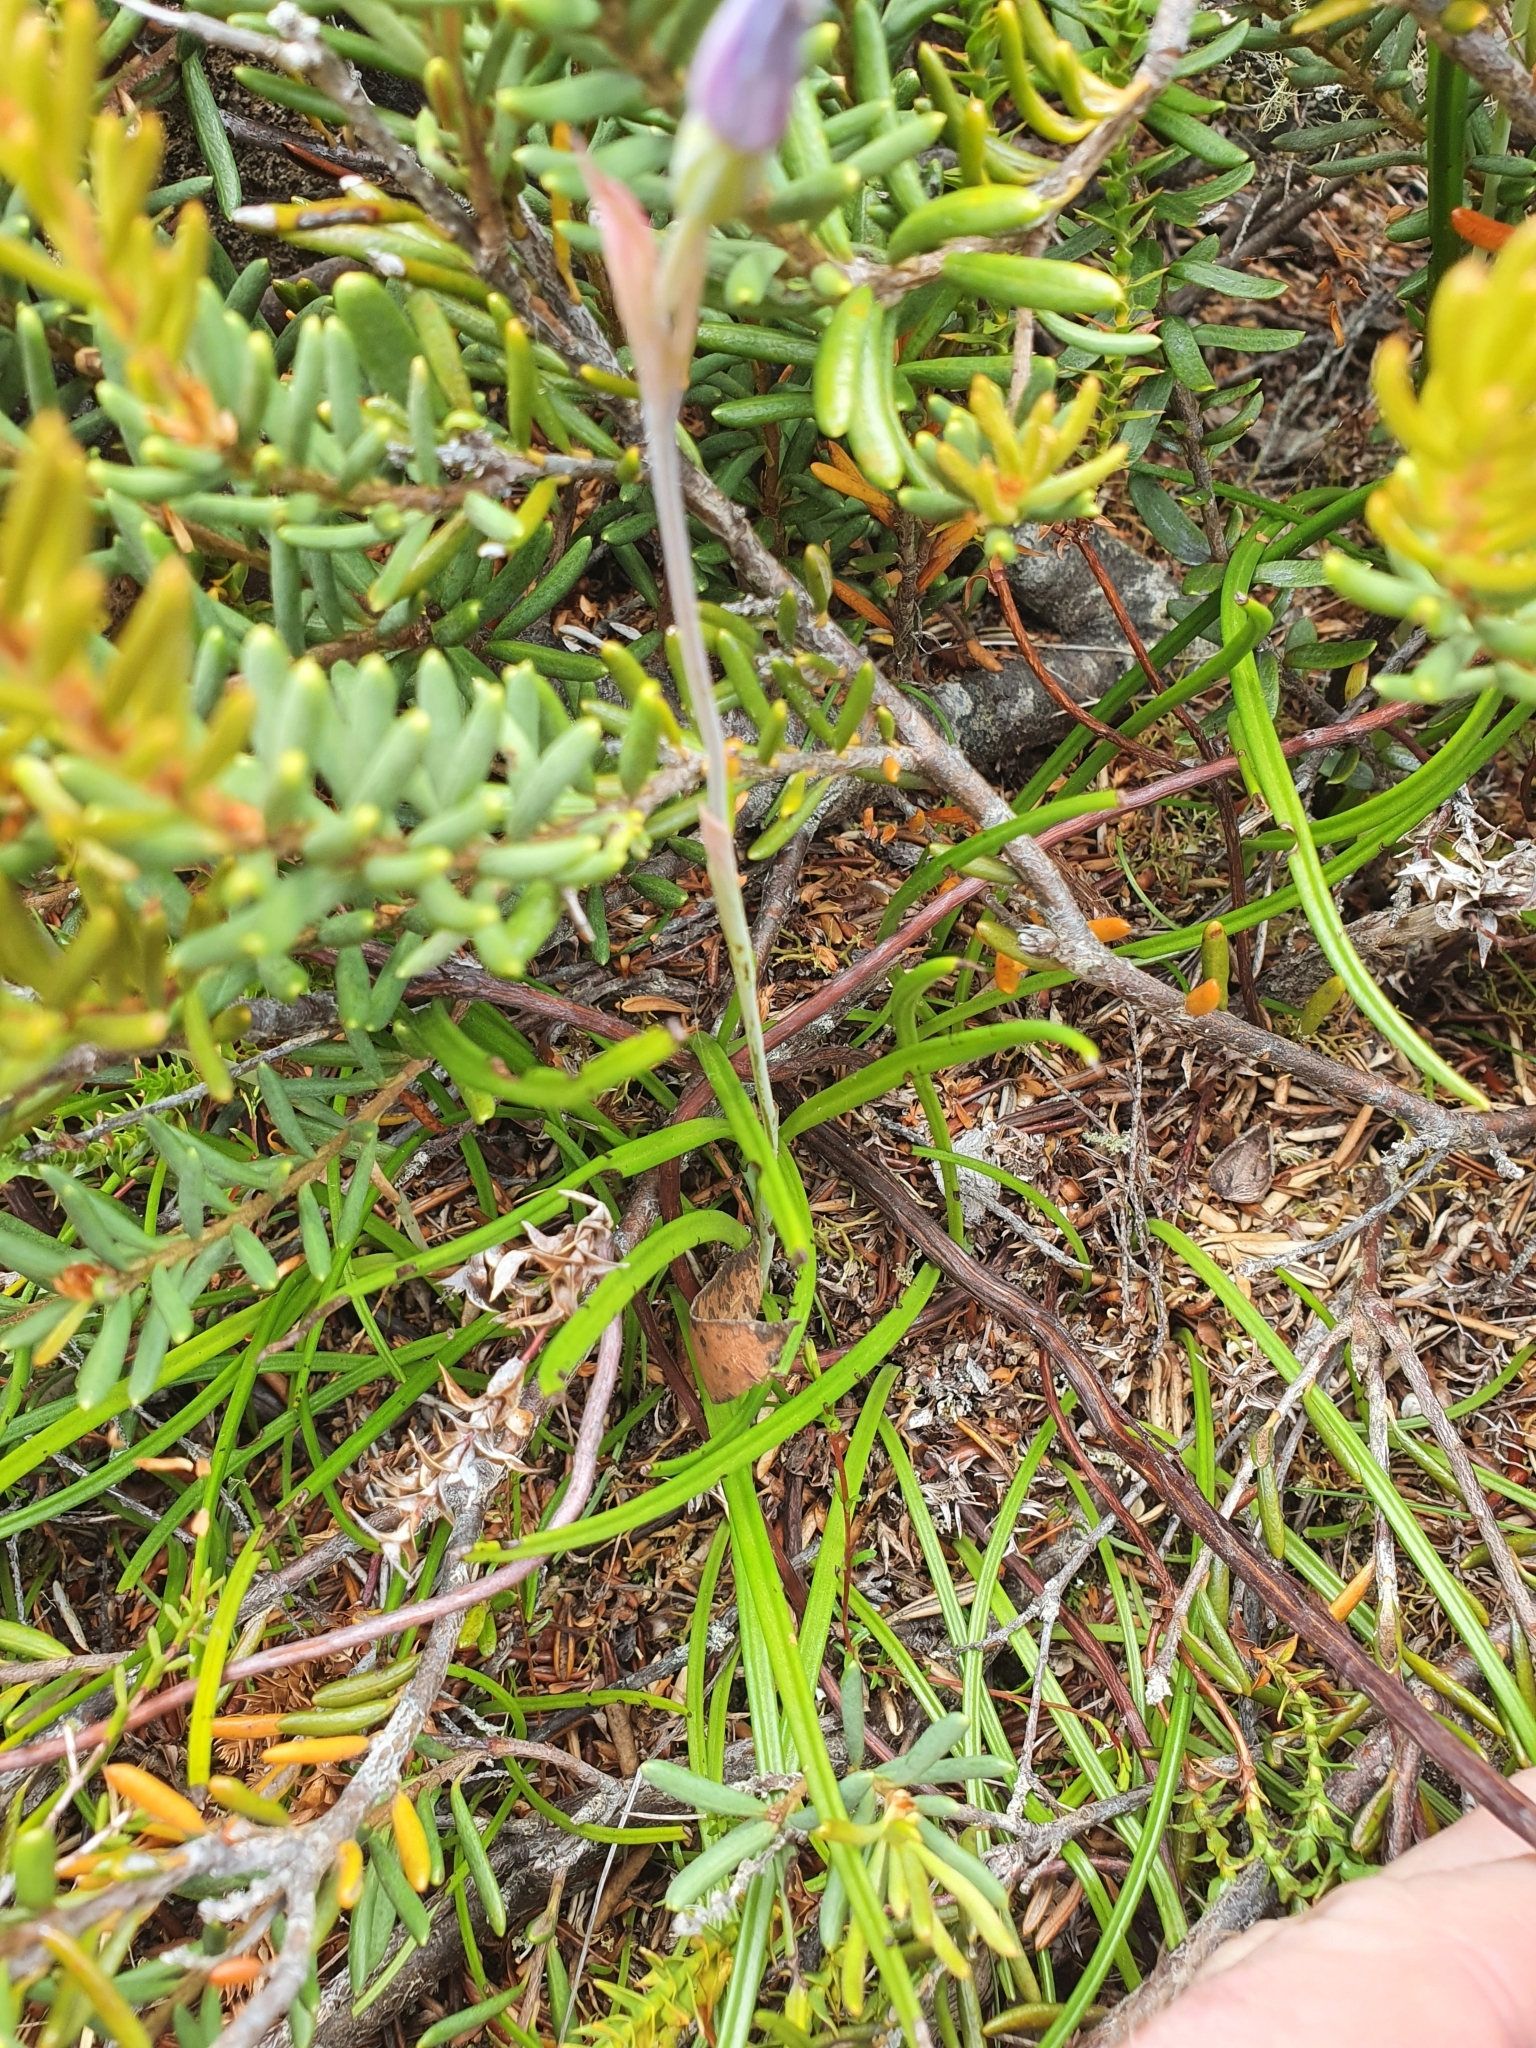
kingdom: Plantae
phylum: Tracheophyta
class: Liliopsida
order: Asparagales
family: Orchidaceae
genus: Thelymitra
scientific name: Thelymitra cyanea
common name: Blue sun-orchid
